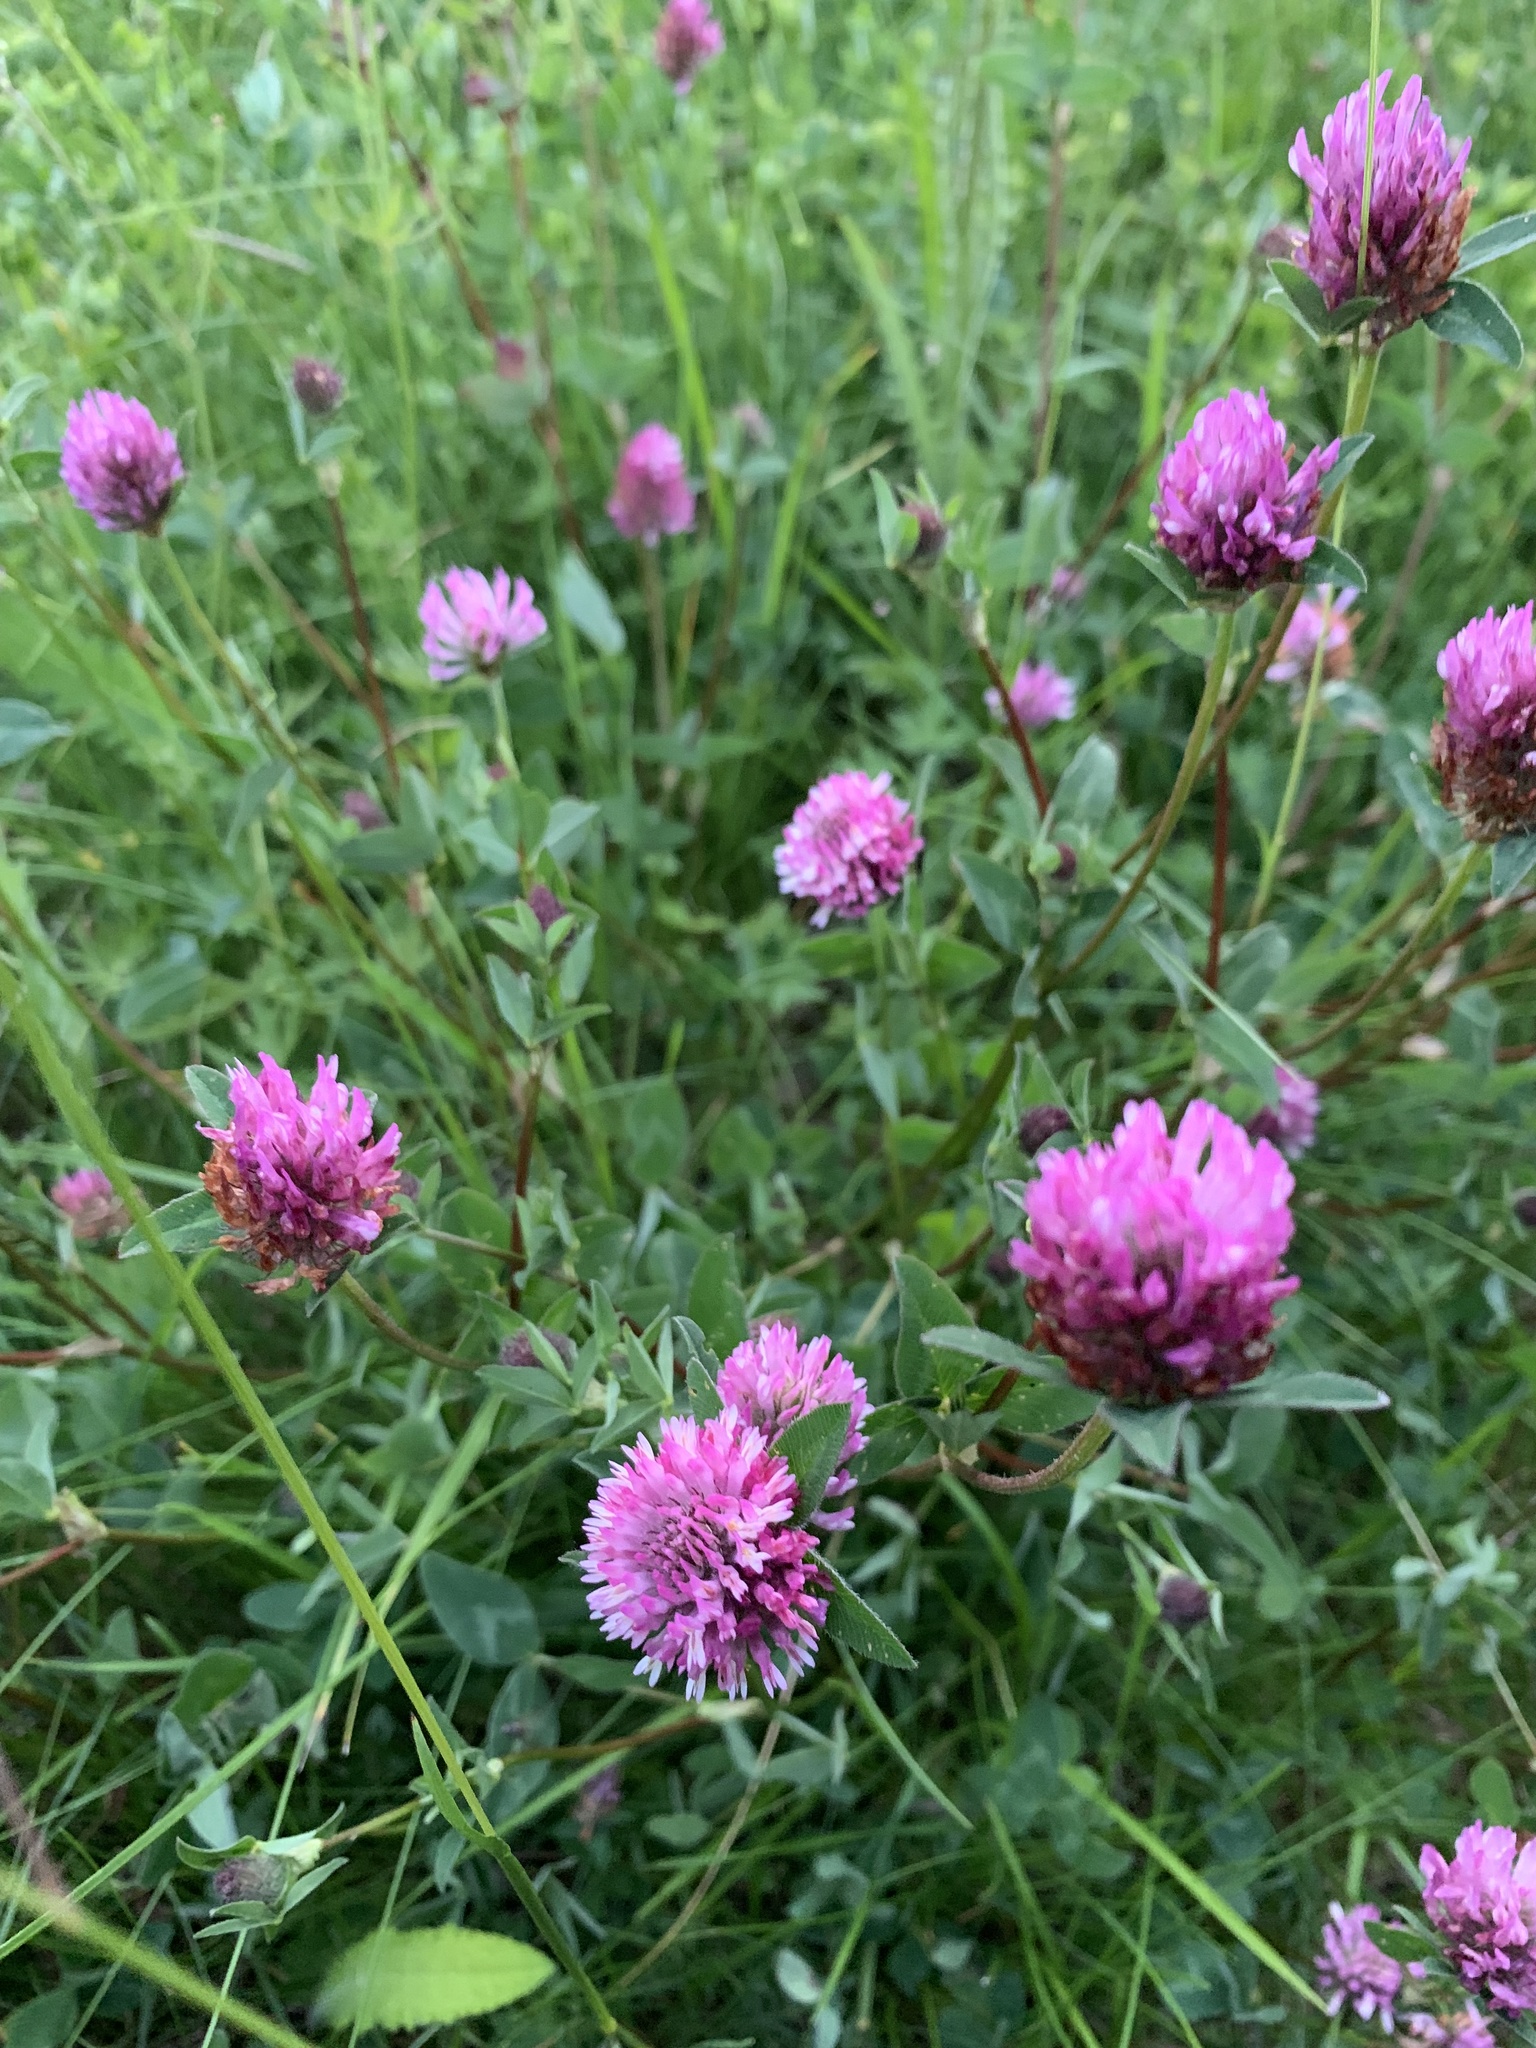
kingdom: Plantae
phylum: Tracheophyta
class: Magnoliopsida
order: Fabales
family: Fabaceae
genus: Trifolium
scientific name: Trifolium pratense
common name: Red clover
